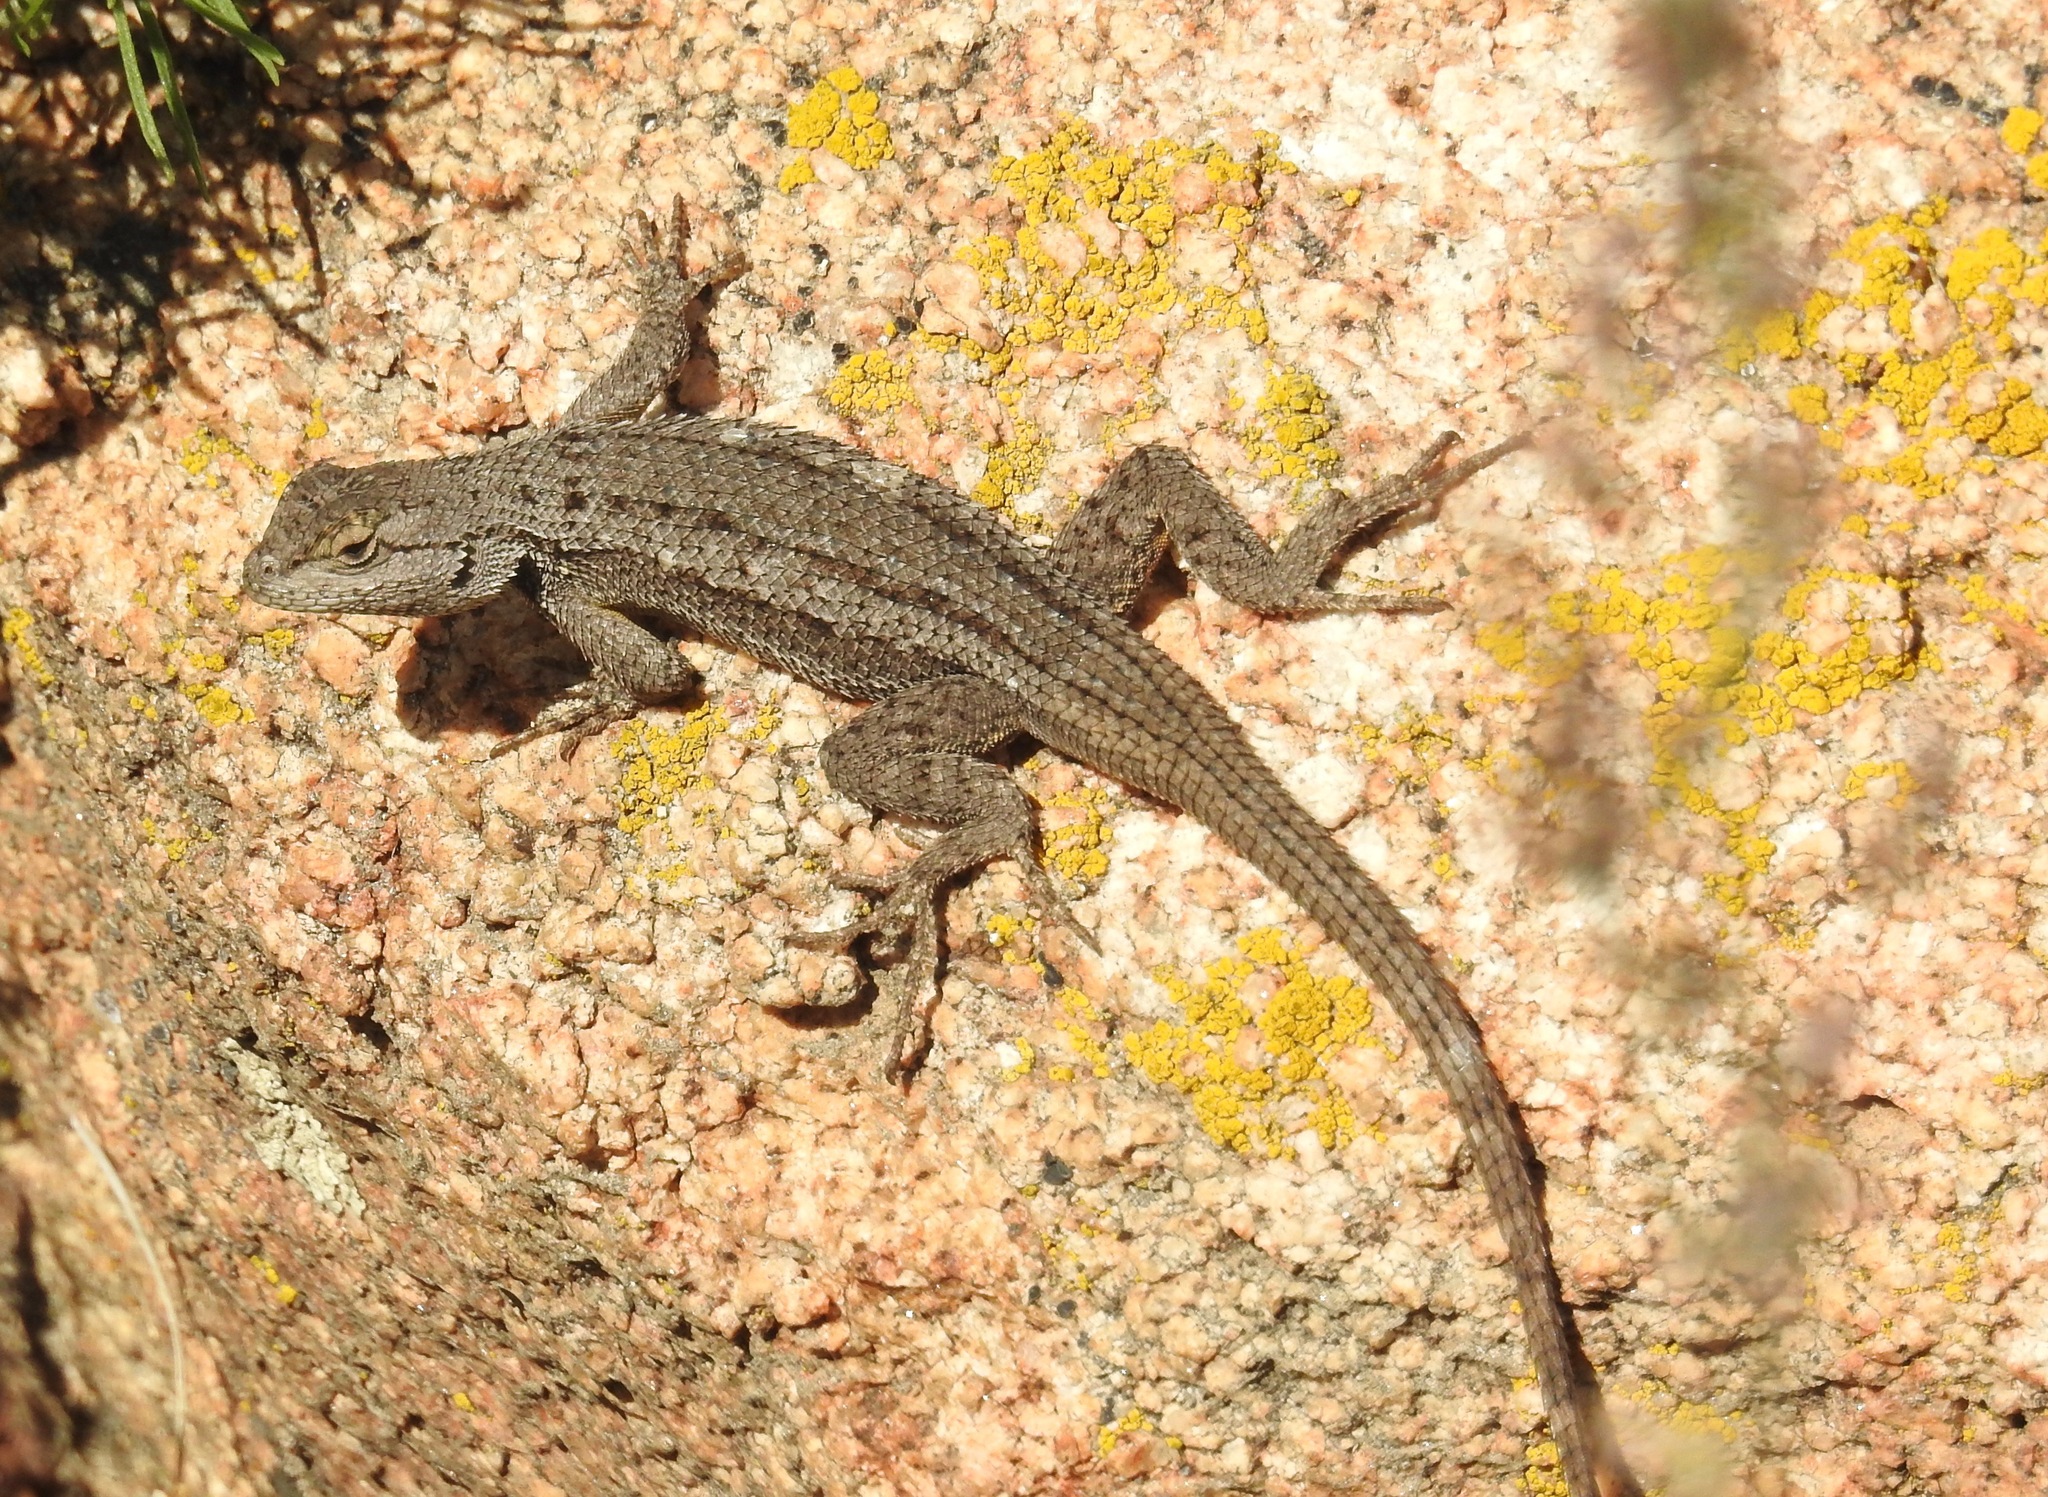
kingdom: Animalia
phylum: Chordata
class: Squamata
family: Phrynosomatidae
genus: Sceloporus
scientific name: Sceloporus occidentalis
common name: Western fence lizard
